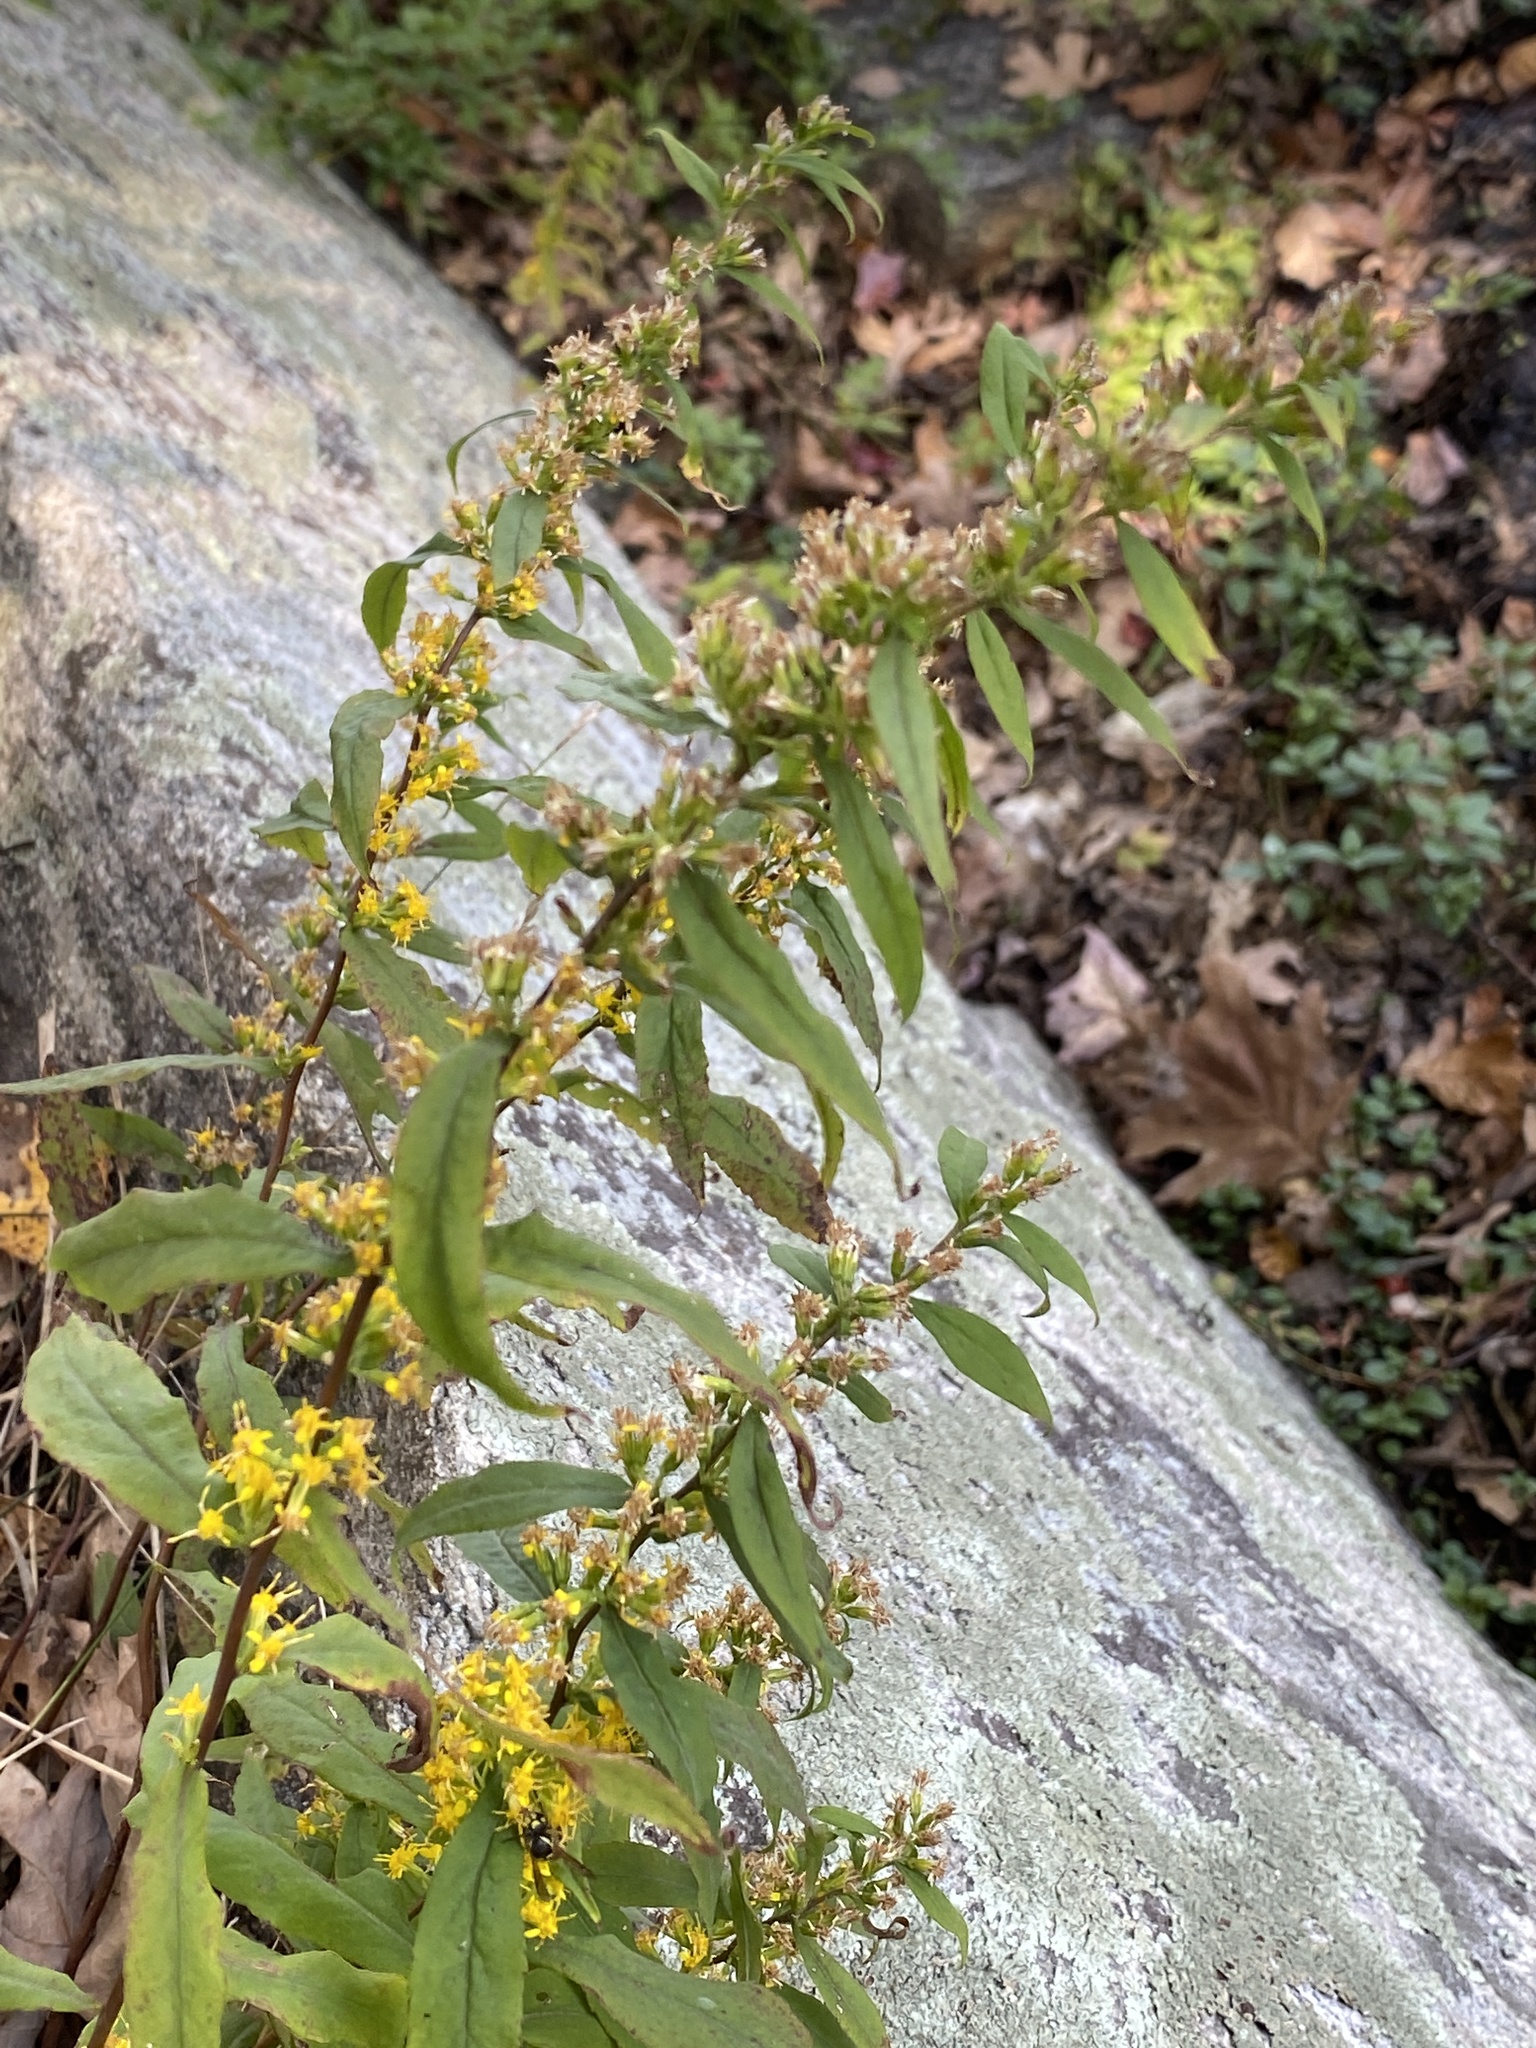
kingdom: Plantae
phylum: Tracheophyta
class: Magnoliopsida
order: Asterales
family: Asteraceae
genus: Solidago
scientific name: Solidago caesia
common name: Woodland goldenrod
